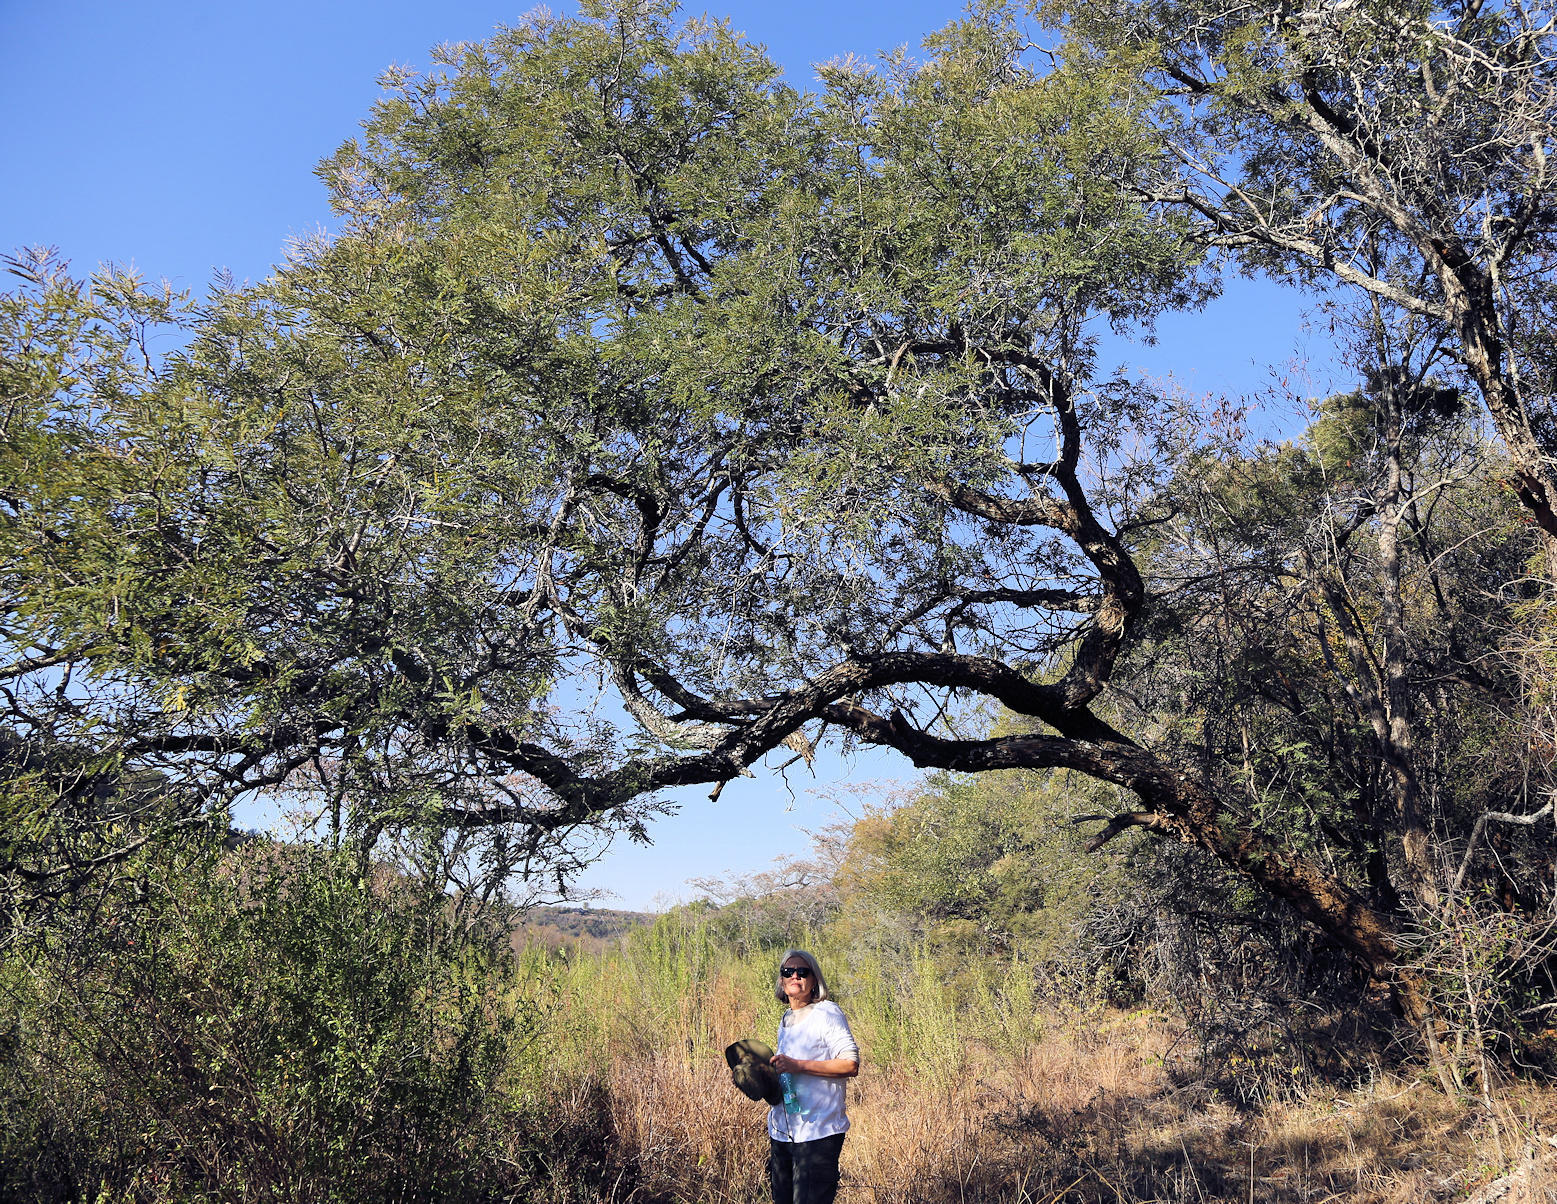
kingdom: Plantae
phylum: Tracheophyta
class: Magnoliopsida
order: Fabales
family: Fabaceae
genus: Peltophorum
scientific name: Peltophorum africanum
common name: African black wattle
